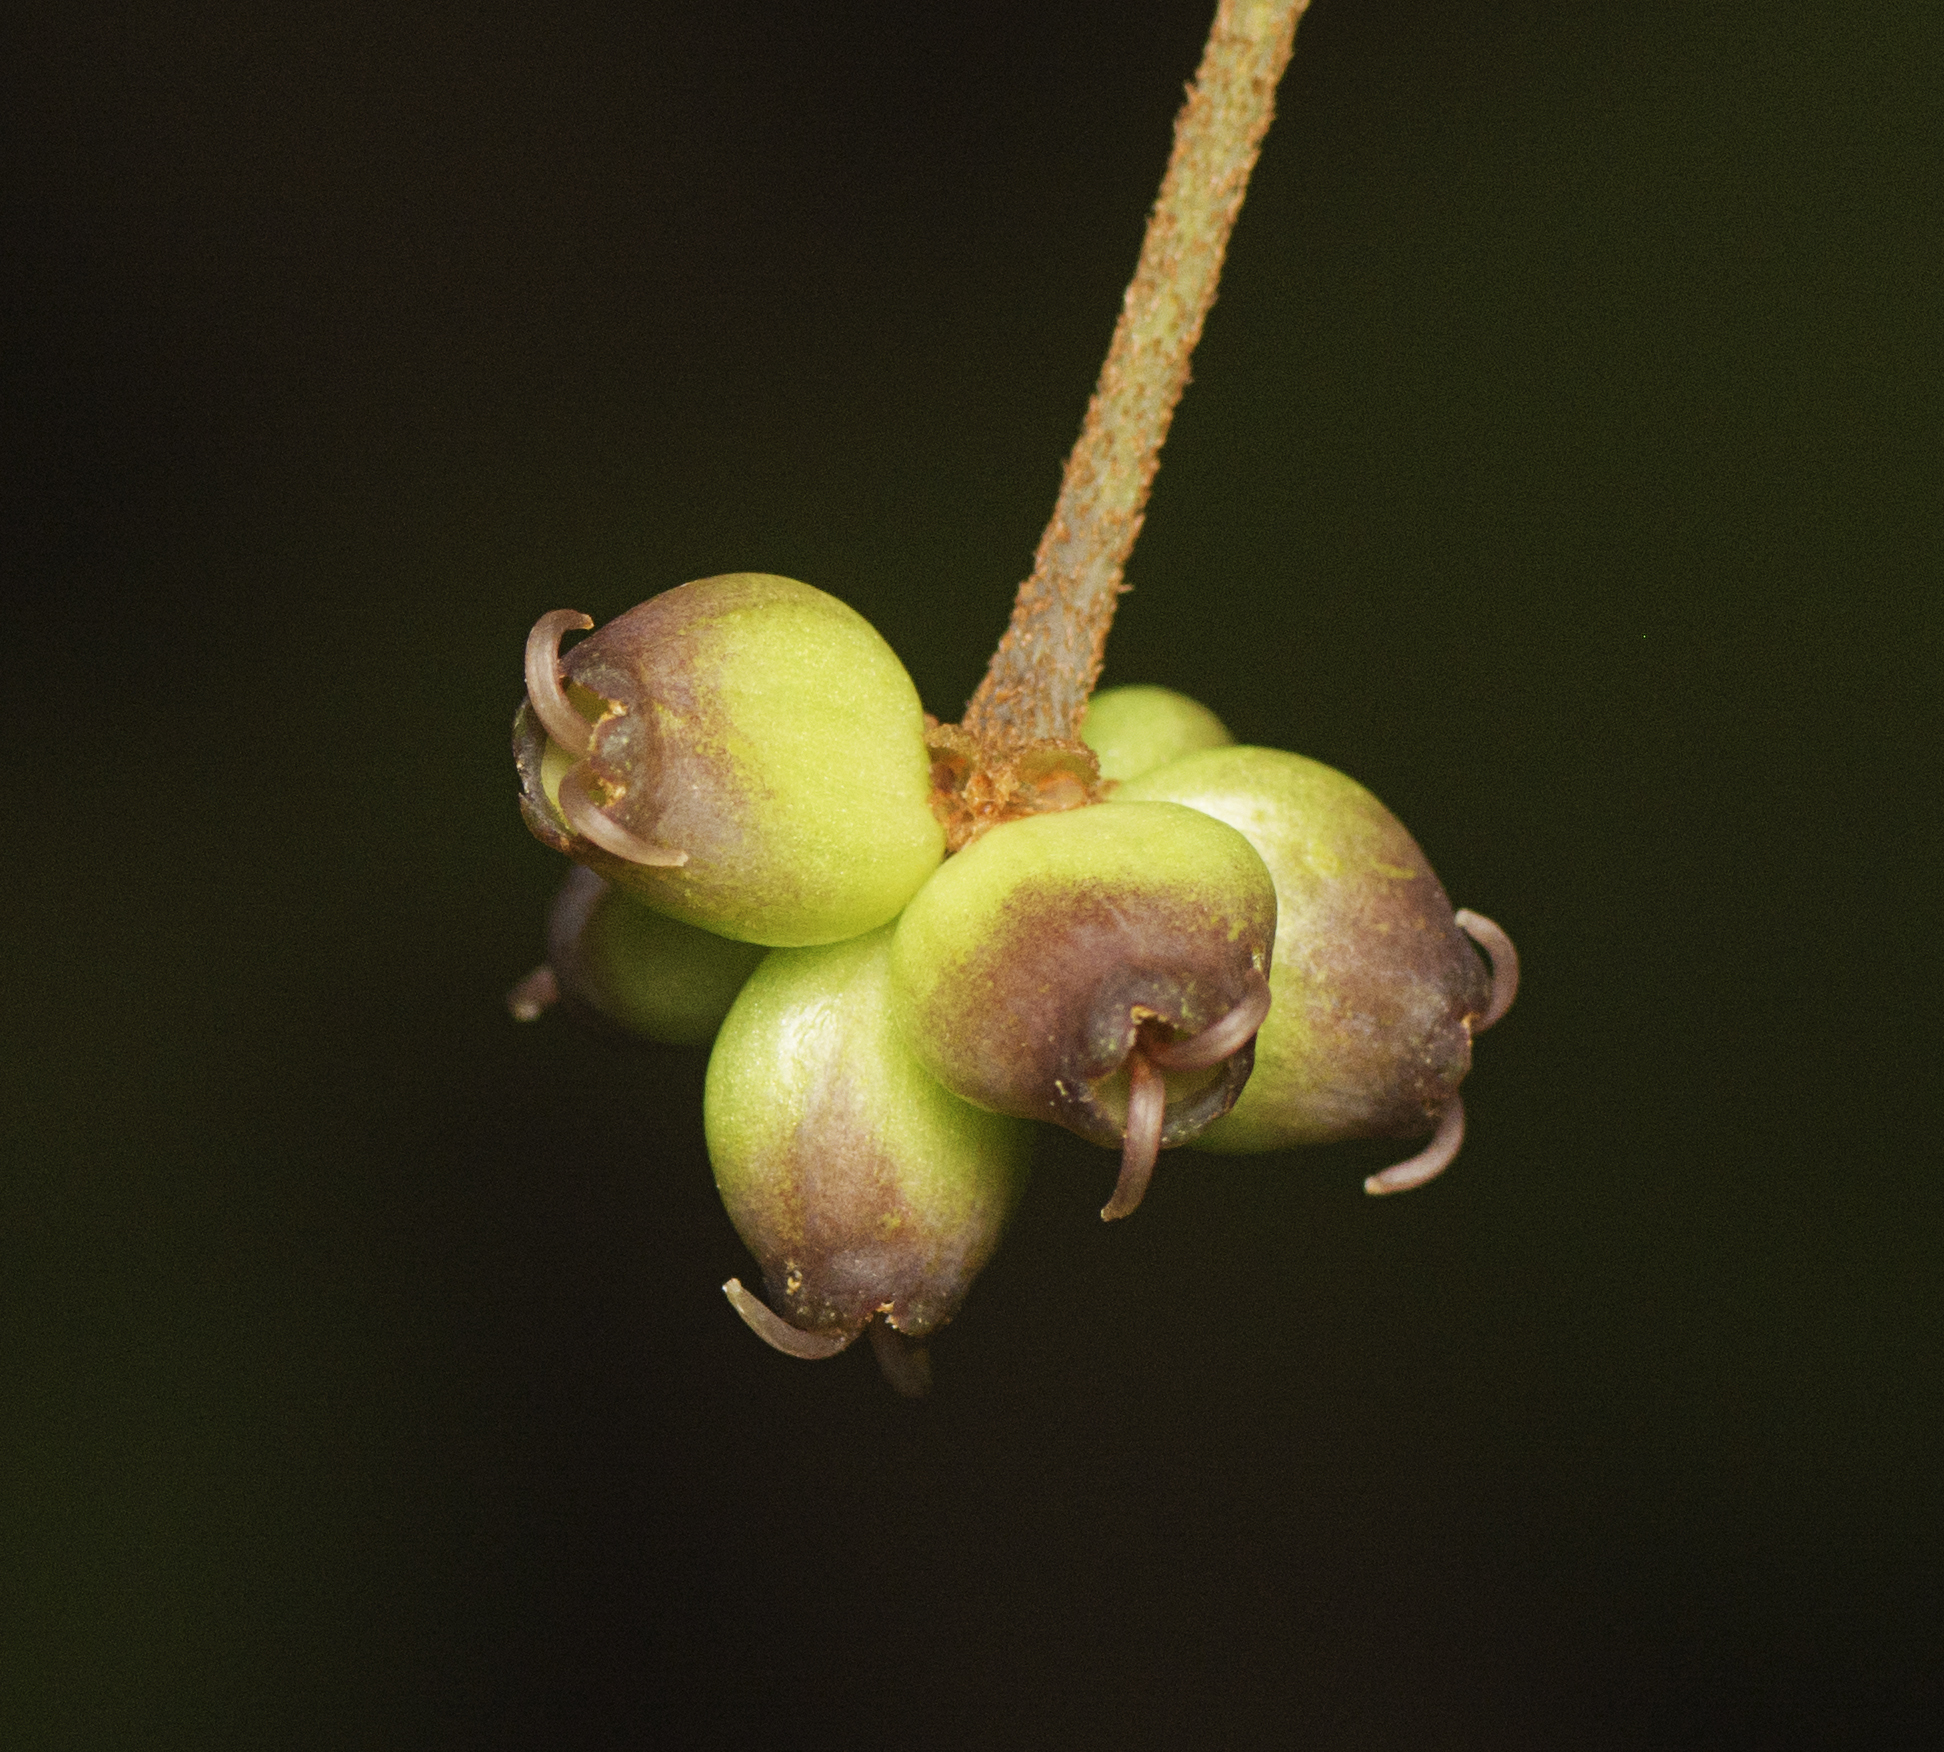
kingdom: Plantae
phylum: Tracheophyta
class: Magnoliopsida
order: Apiales
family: Araliaceae
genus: Cephalaralia
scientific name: Cephalaralia cephalobotrys
